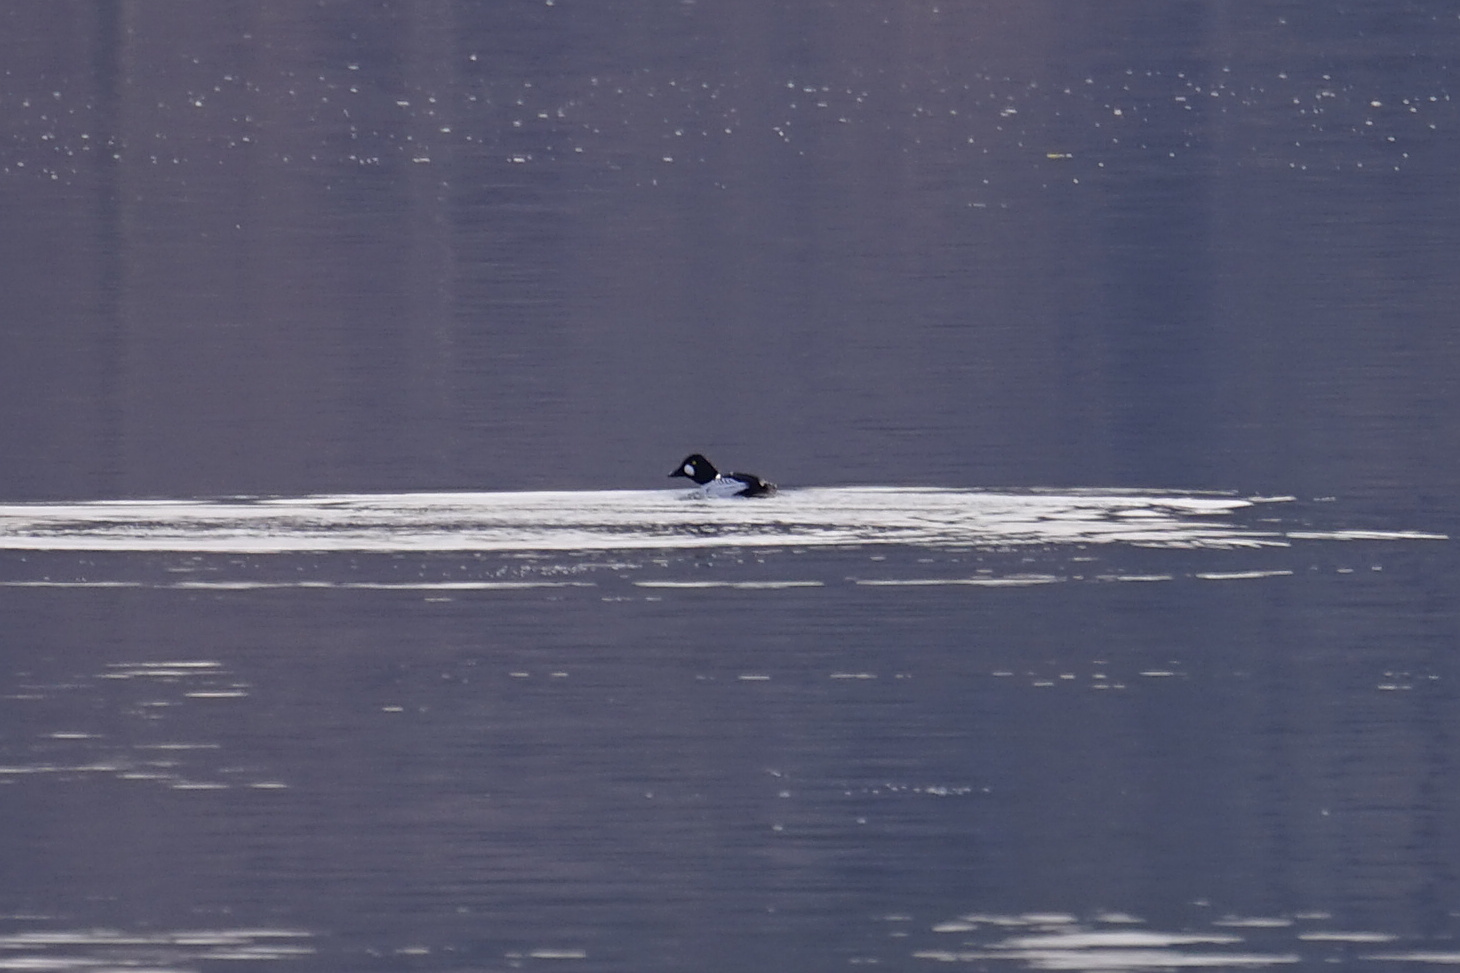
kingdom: Animalia
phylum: Chordata
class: Aves
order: Anseriformes
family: Anatidae
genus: Bucephala
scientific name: Bucephala clangula
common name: Common goldeneye
